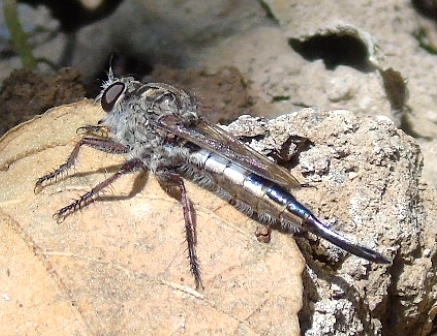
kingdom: Animalia
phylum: Arthropoda
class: Insecta
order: Diptera
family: Asilidae
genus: Efferia
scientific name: Efferia
